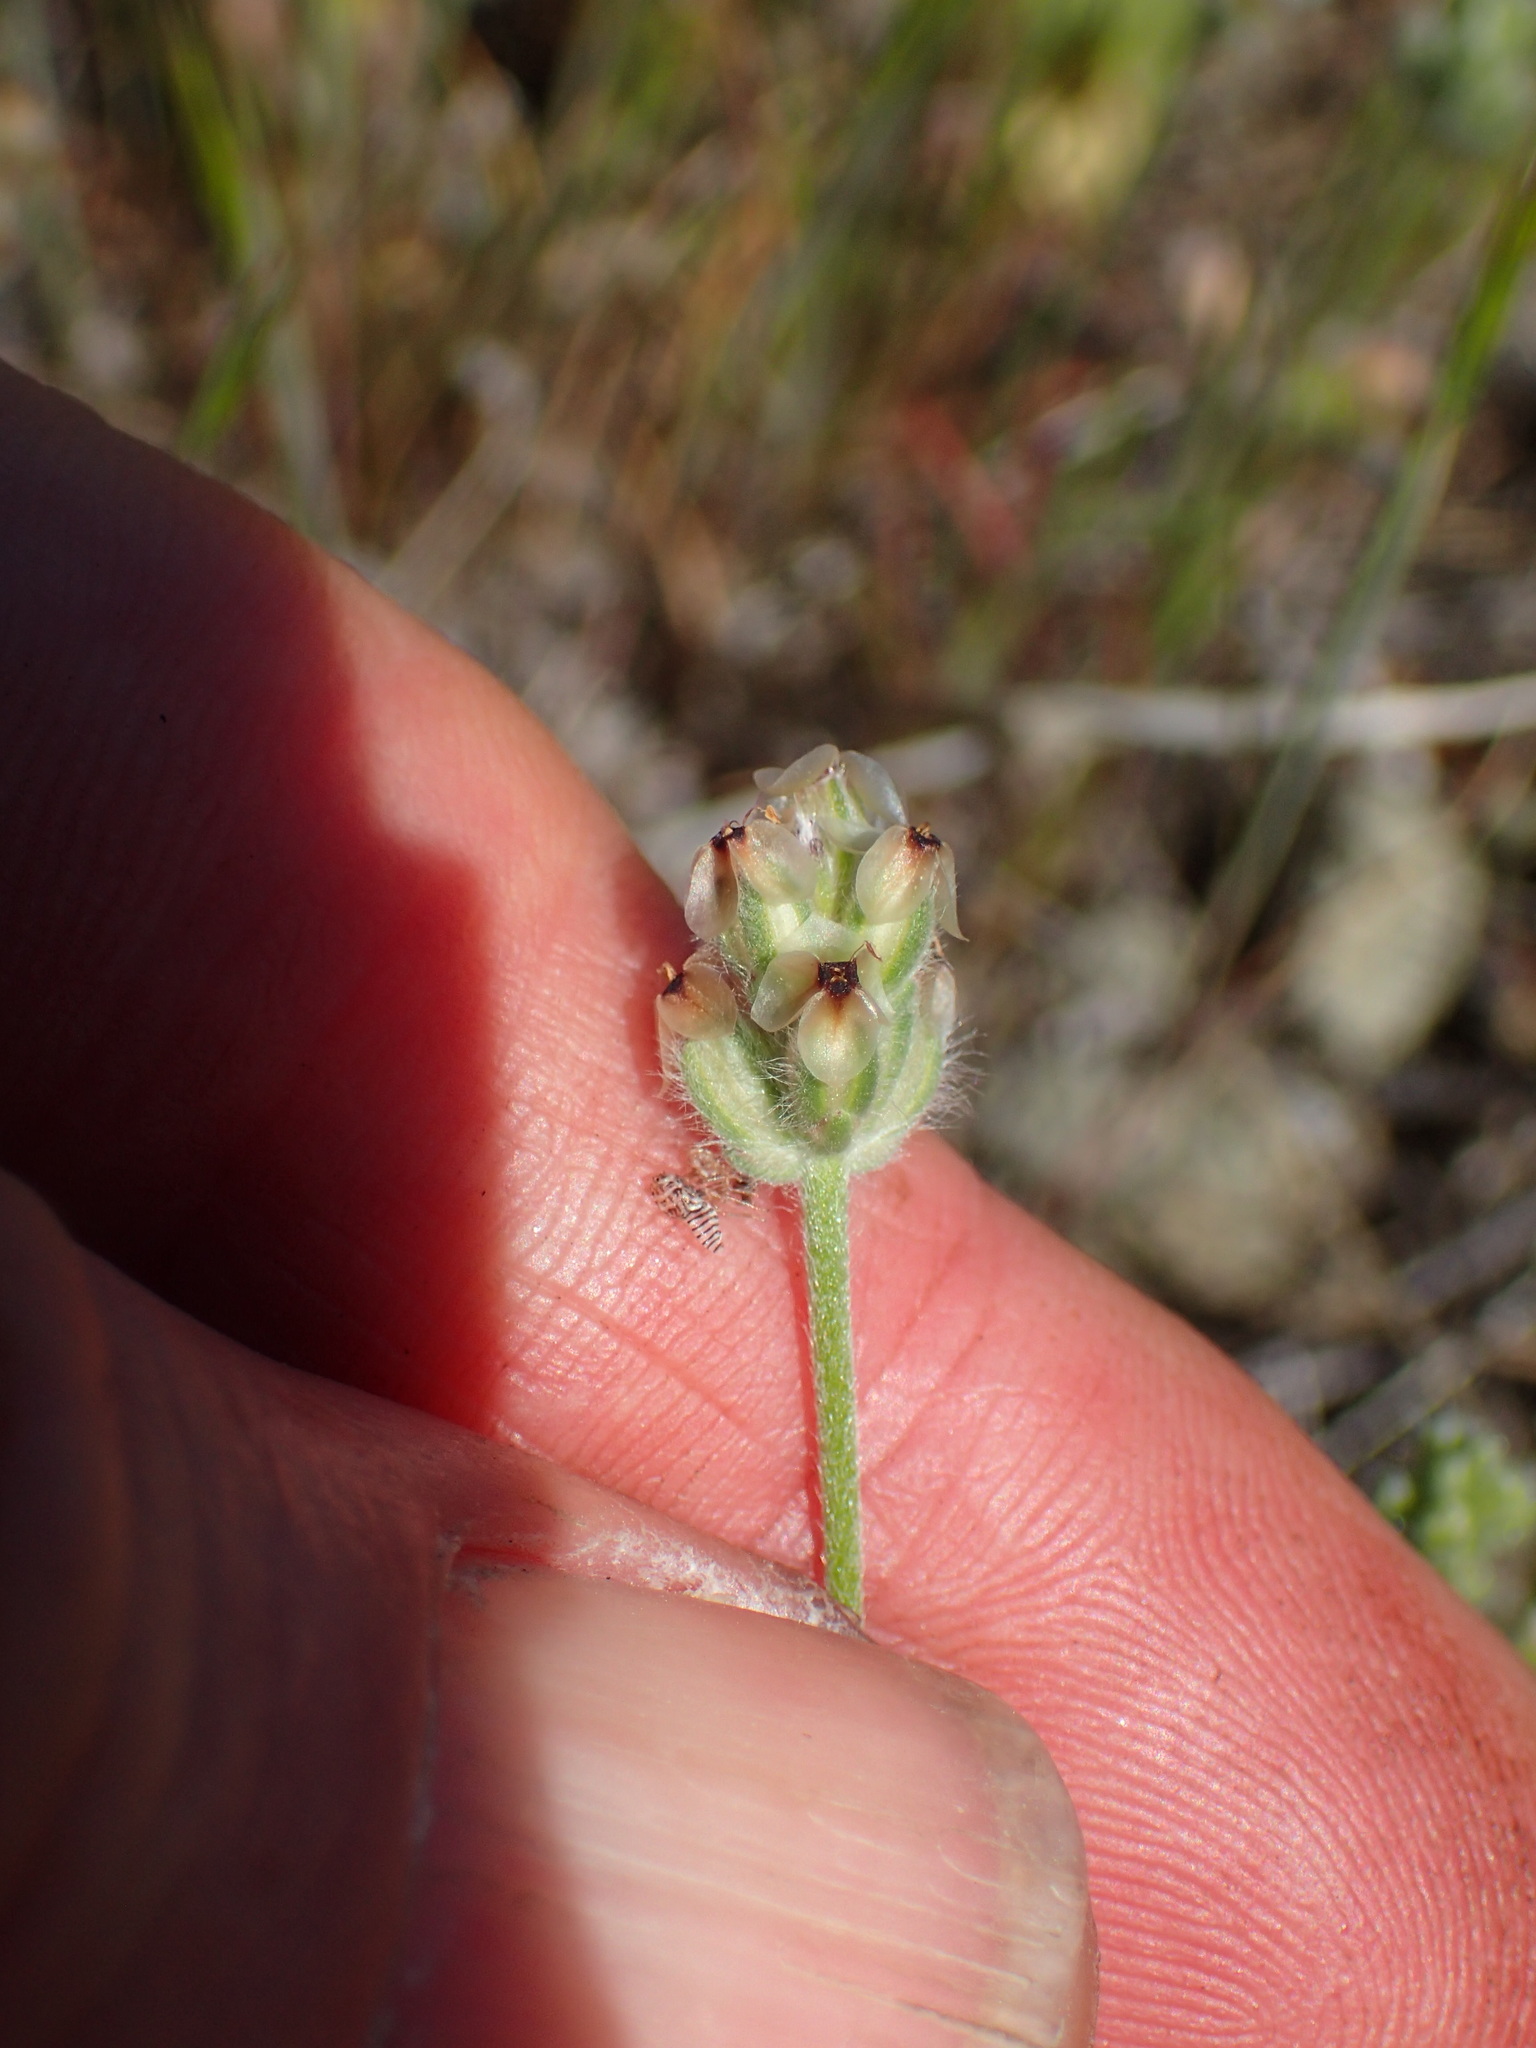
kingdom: Plantae
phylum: Tracheophyta
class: Magnoliopsida
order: Lamiales
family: Plantaginaceae
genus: Plantago
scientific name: Plantago erecta
